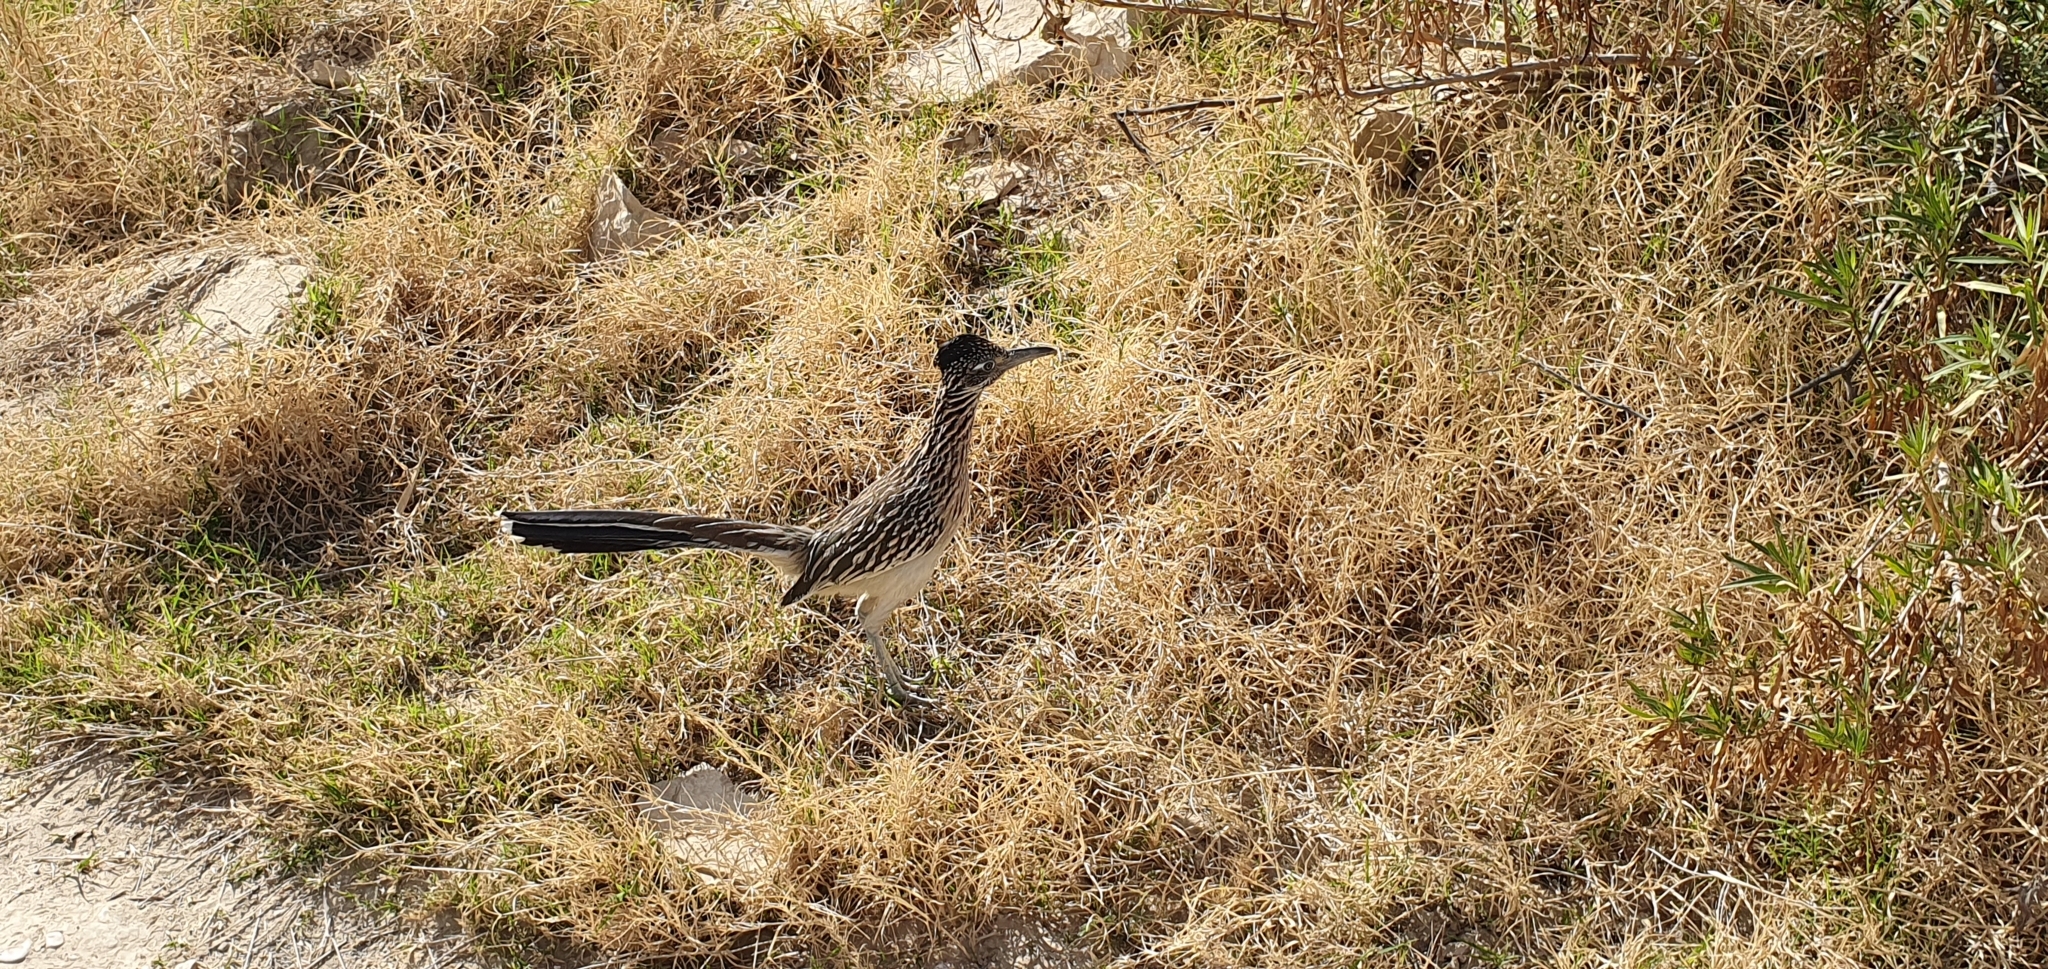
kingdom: Animalia
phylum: Chordata
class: Aves
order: Cuculiformes
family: Cuculidae
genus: Geococcyx
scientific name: Geococcyx californianus
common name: Greater roadrunner
